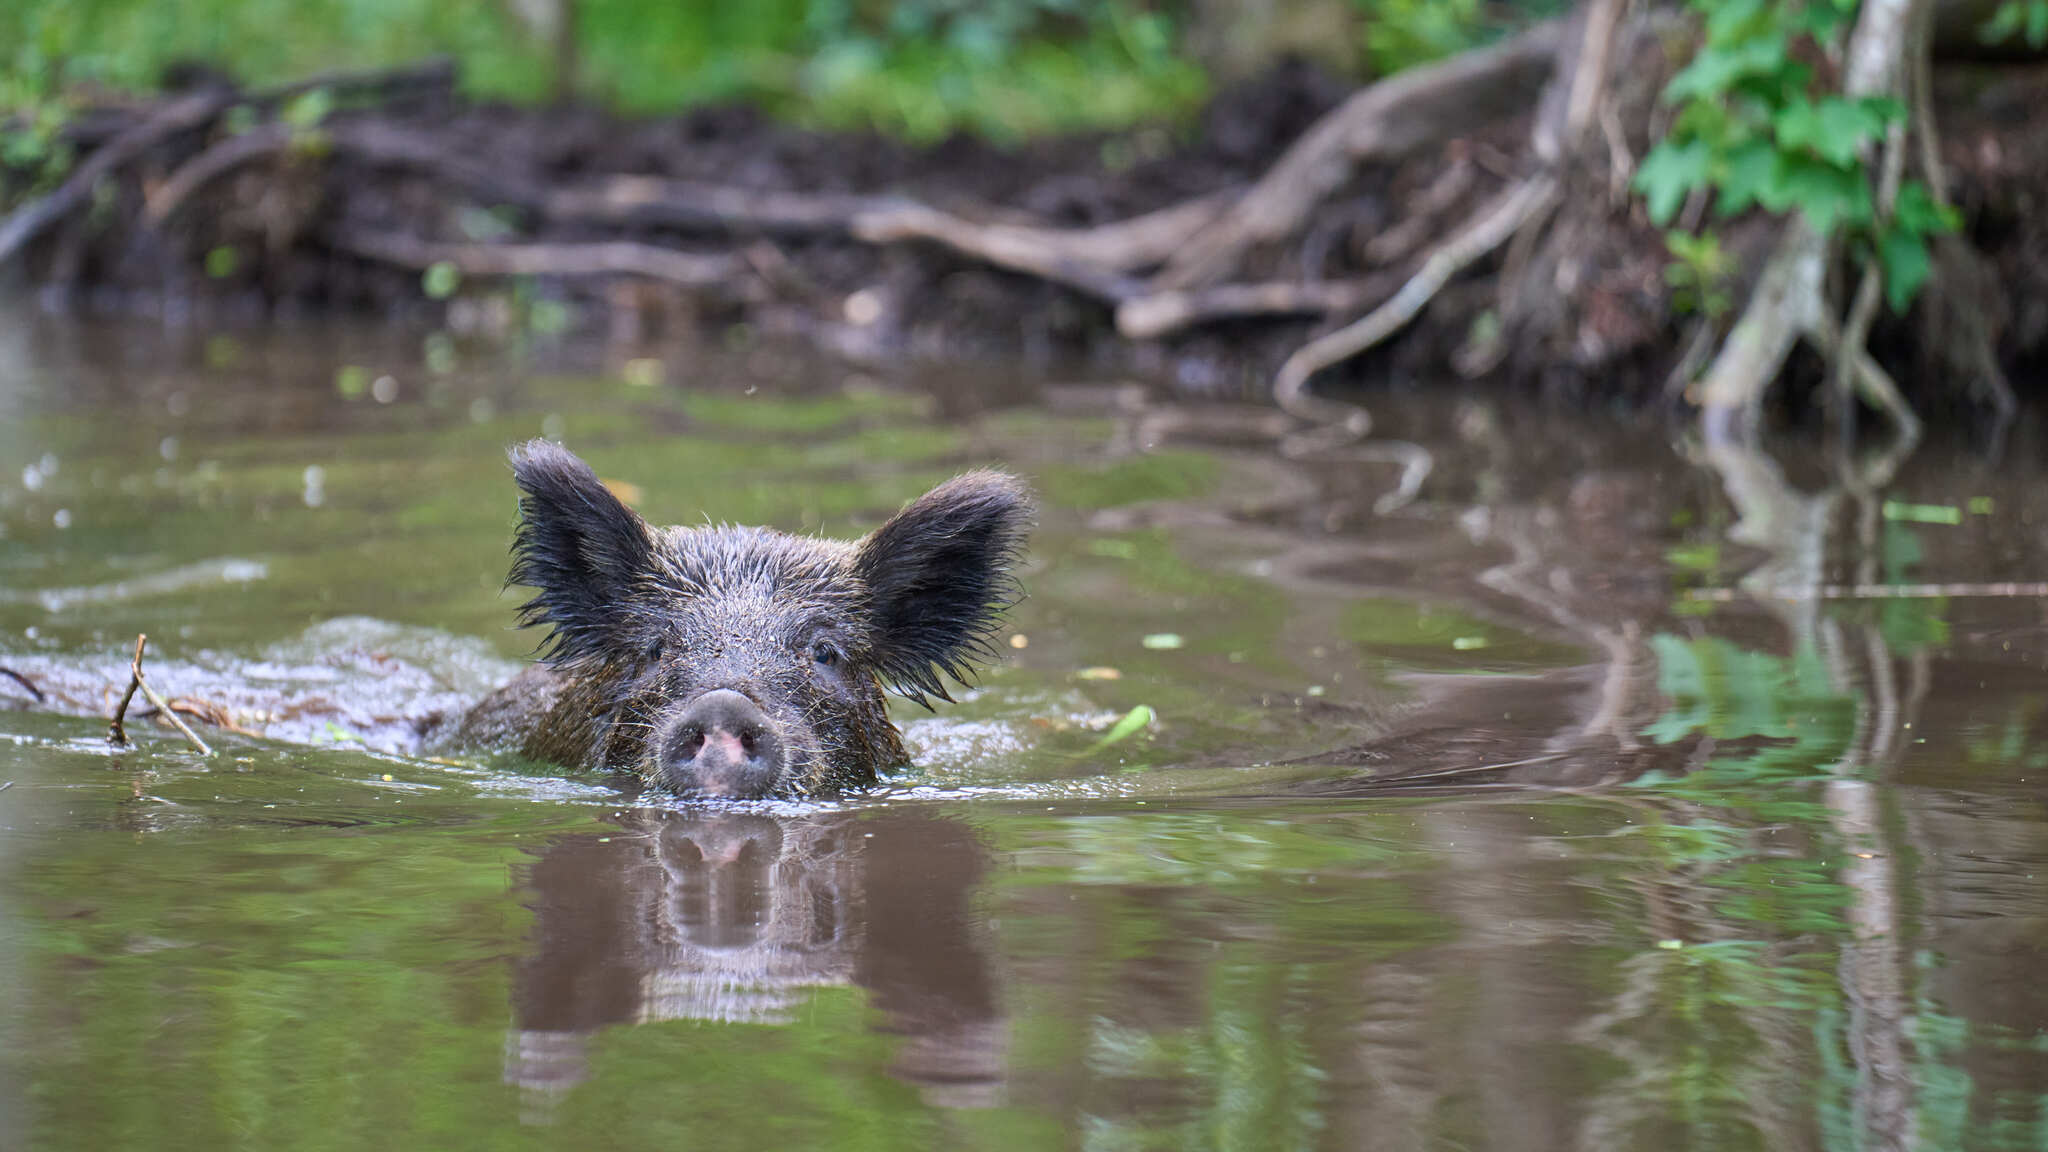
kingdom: Animalia
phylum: Chordata
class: Mammalia
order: Artiodactyla
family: Suidae
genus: Sus
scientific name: Sus scrofa
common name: Wild boar
